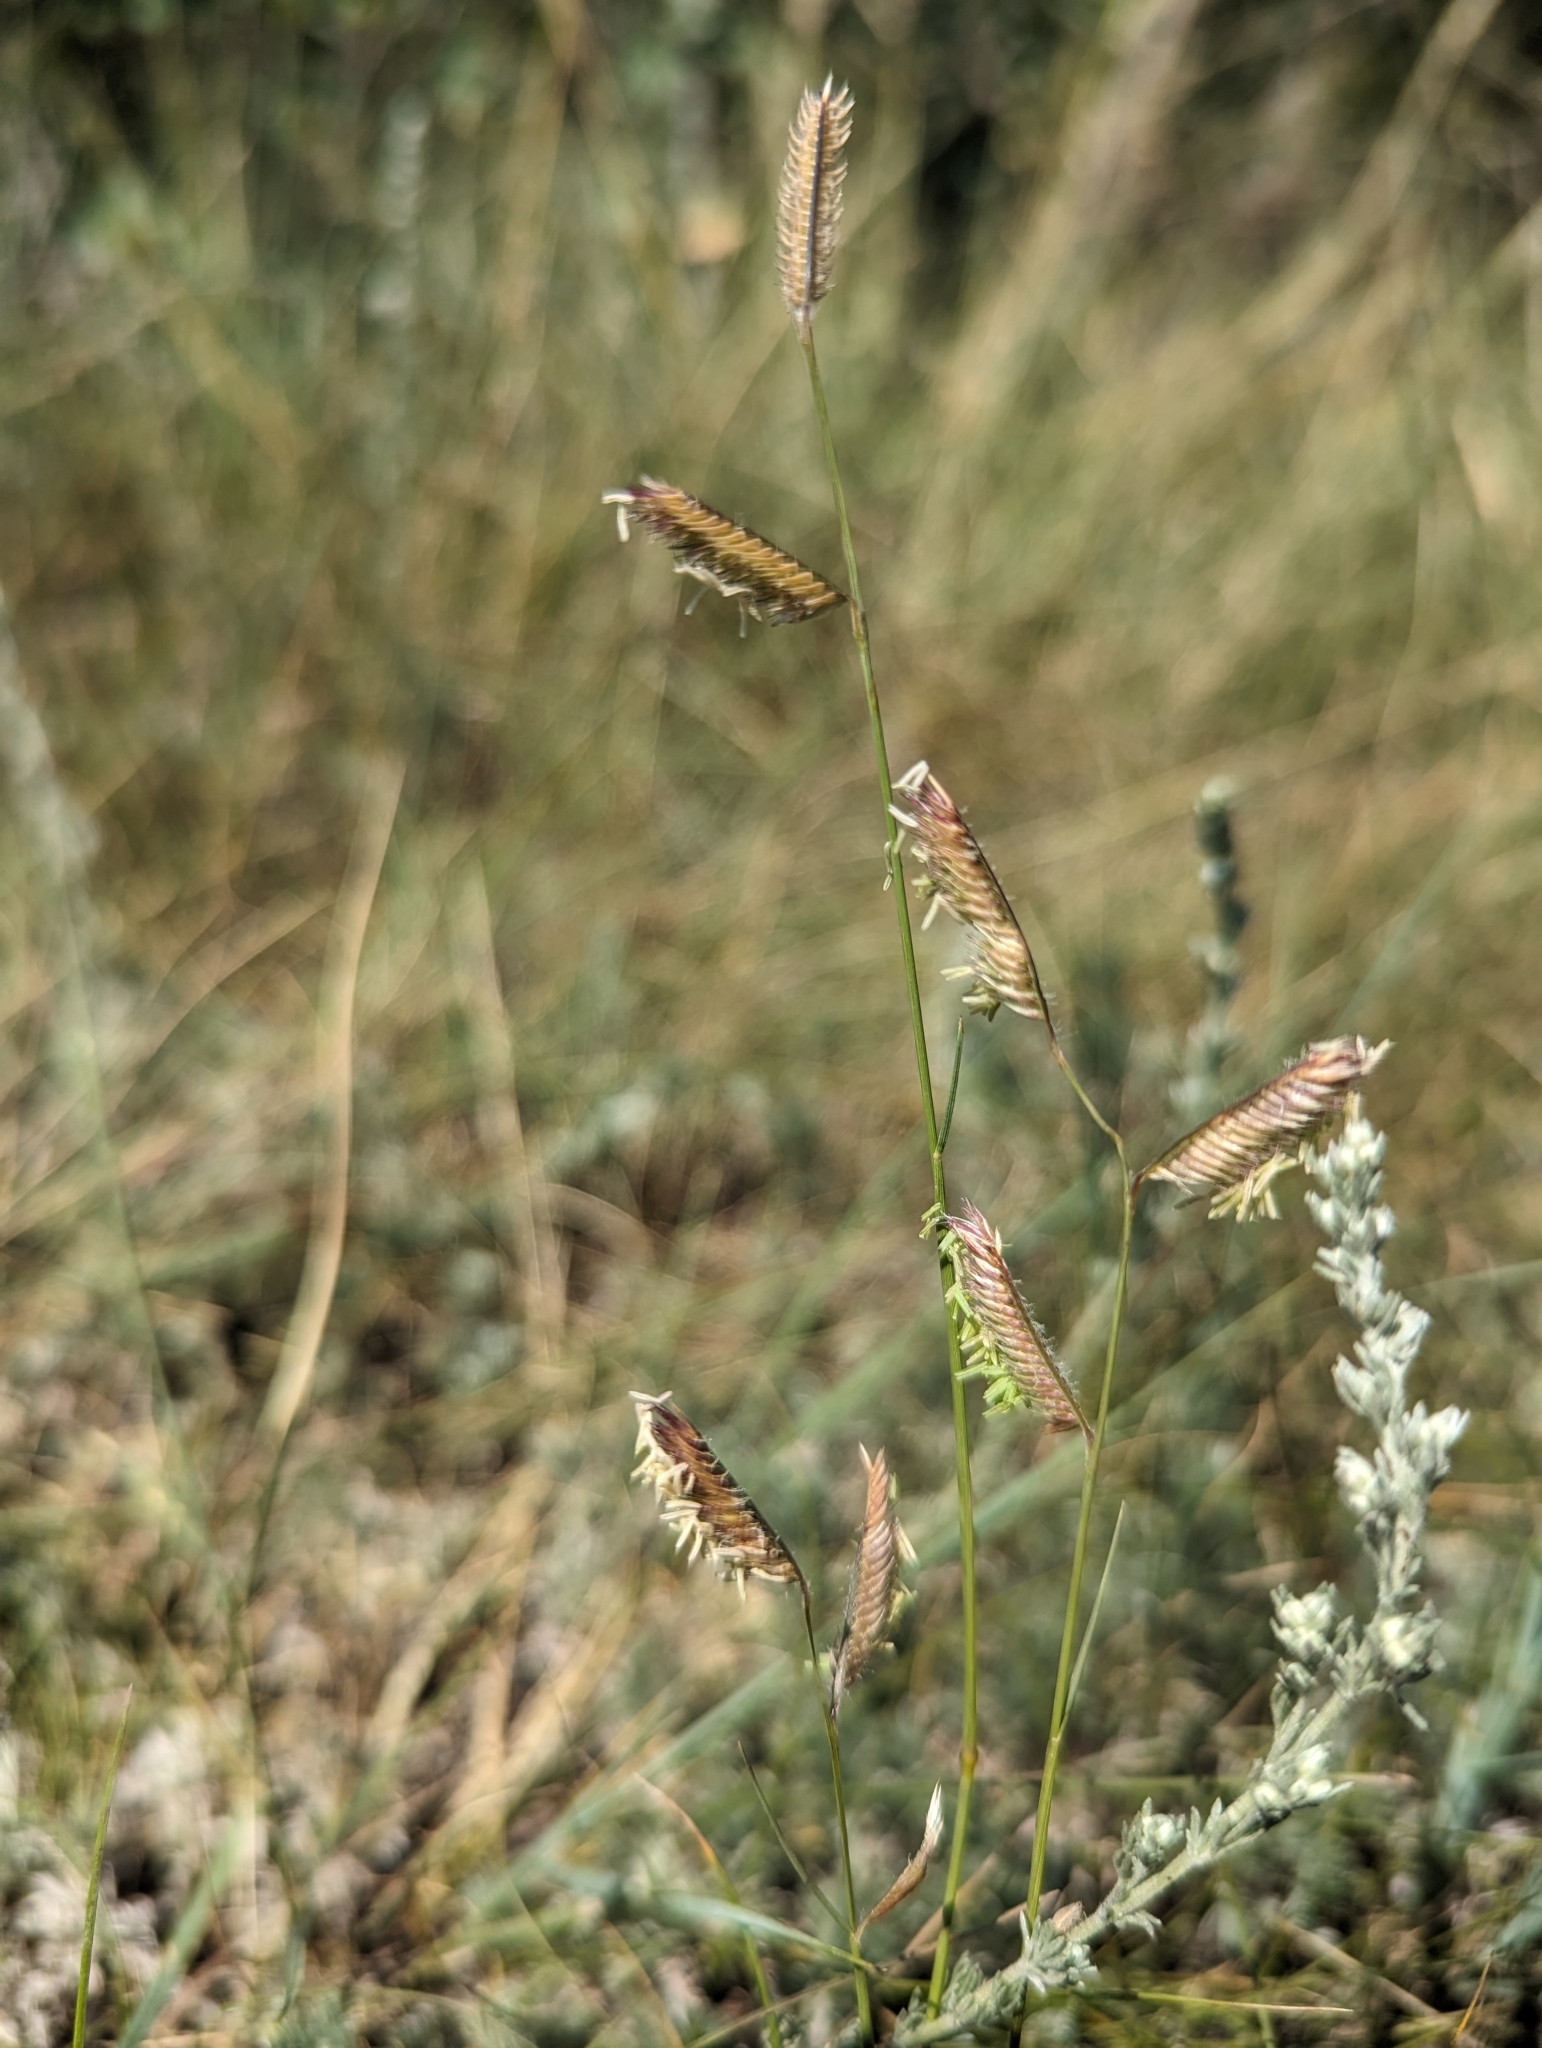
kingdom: Plantae
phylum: Tracheophyta
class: Liliopsida
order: Poales
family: Poaceae
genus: Bouteloua
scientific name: Bouteloua gracilis
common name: Blue grama
